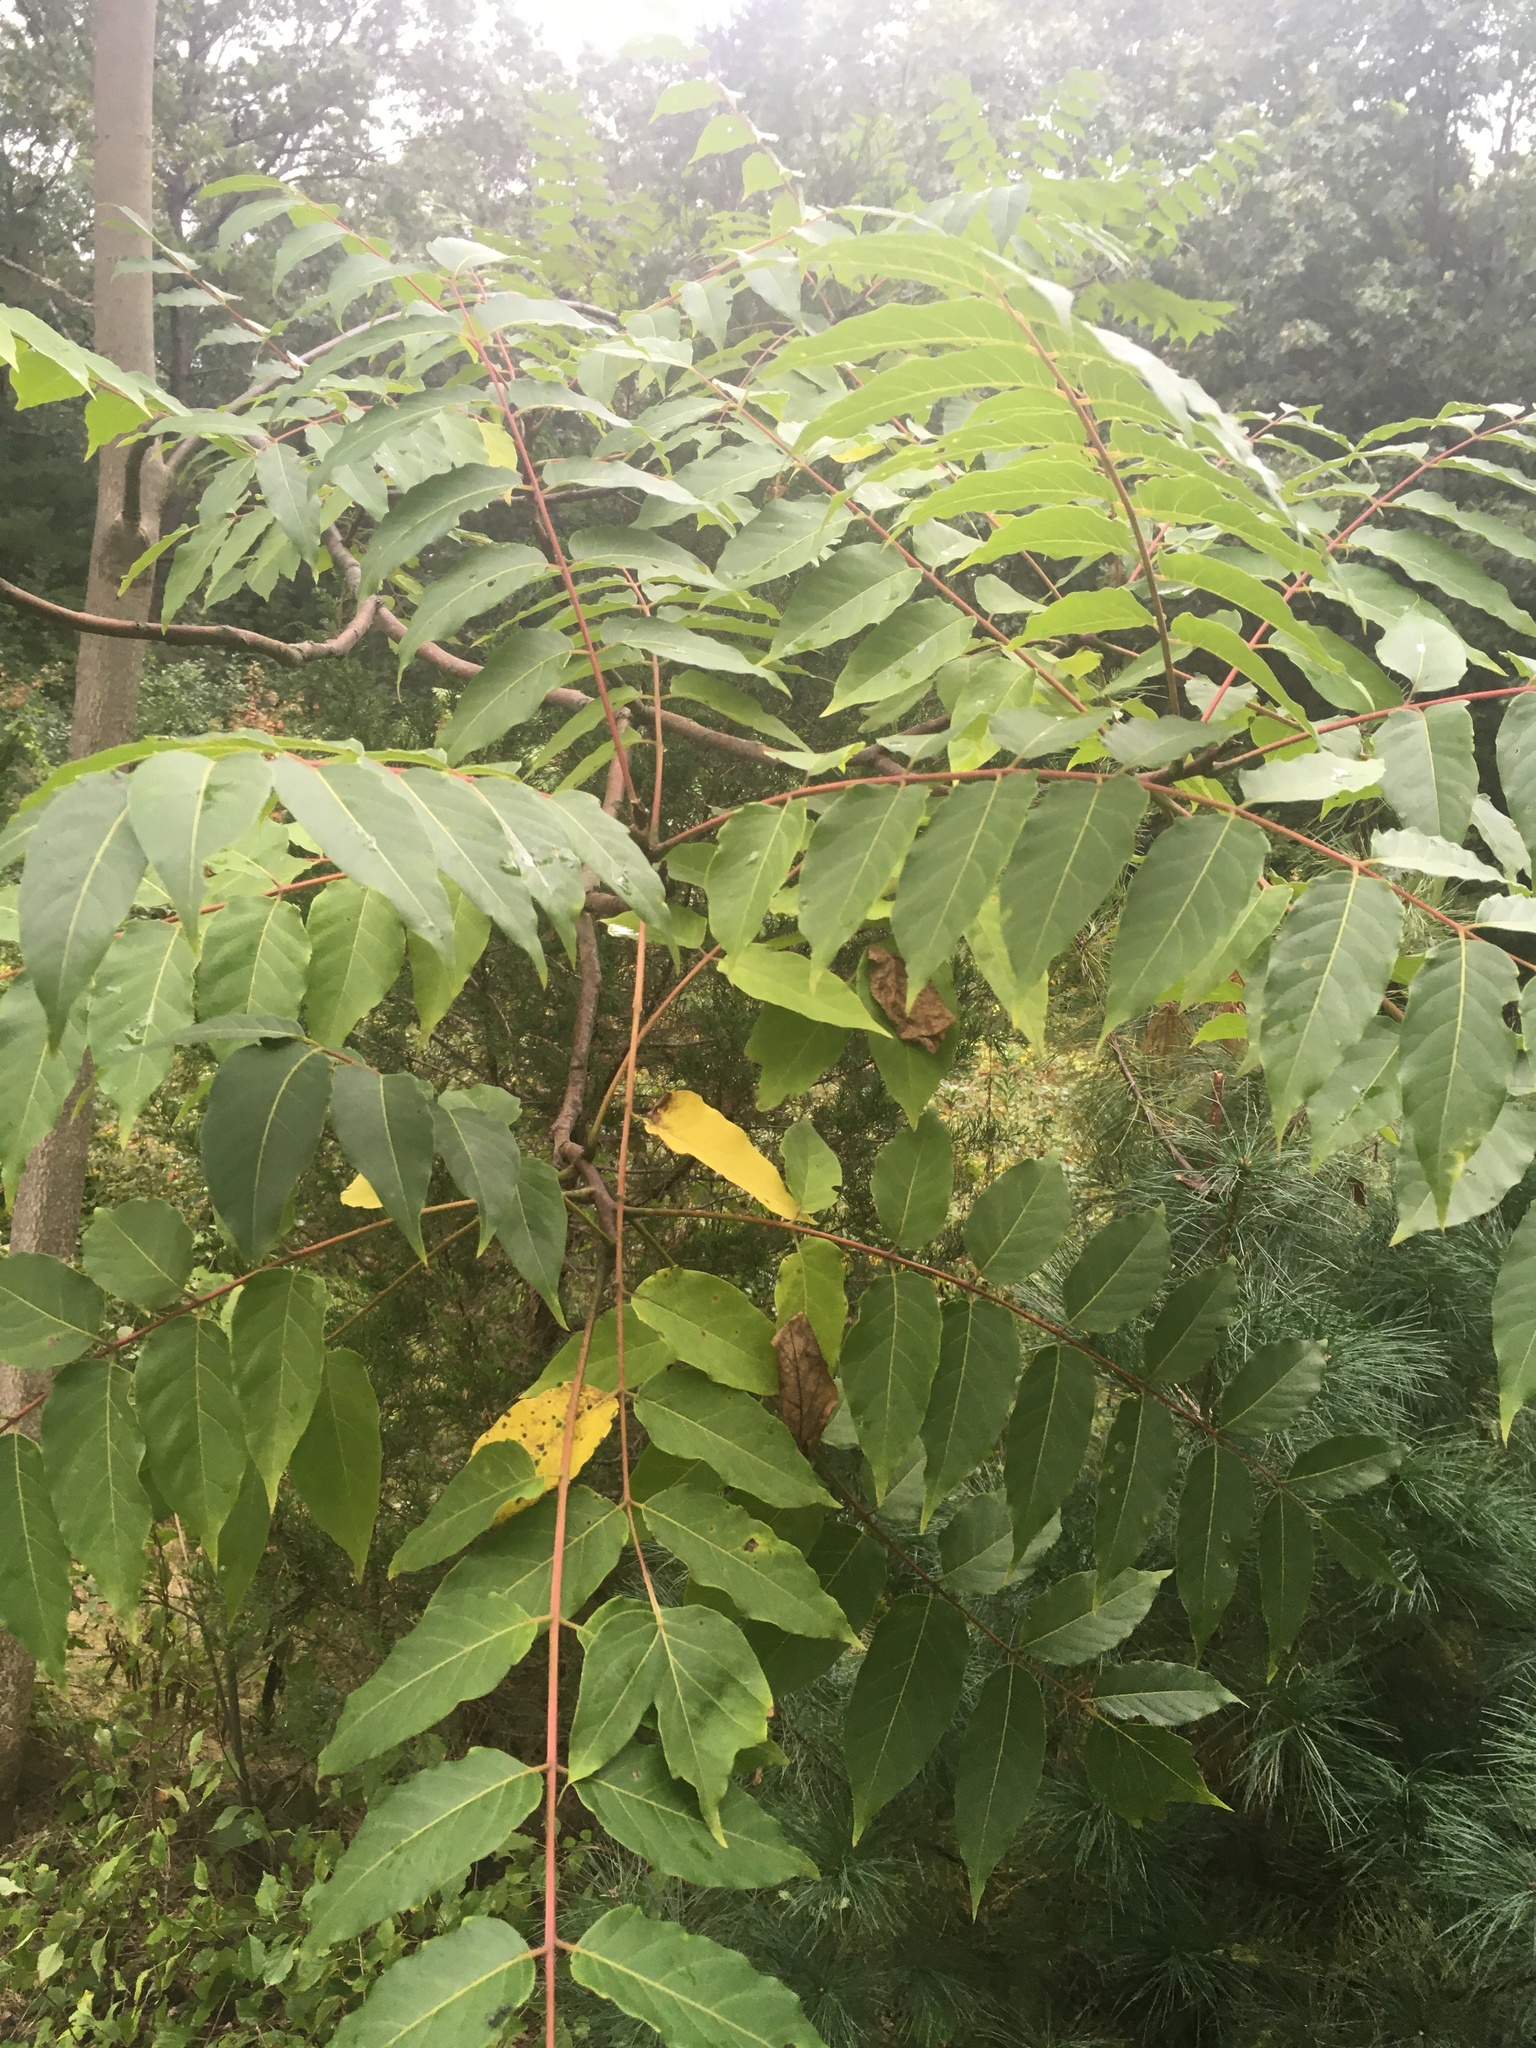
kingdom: Plantae
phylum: Tracheophyta
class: Magnoliopsida
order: Sapindales
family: Simaroubaceae
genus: Ailanthus
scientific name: Ailanthus altissima
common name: Tree-of-heaven
